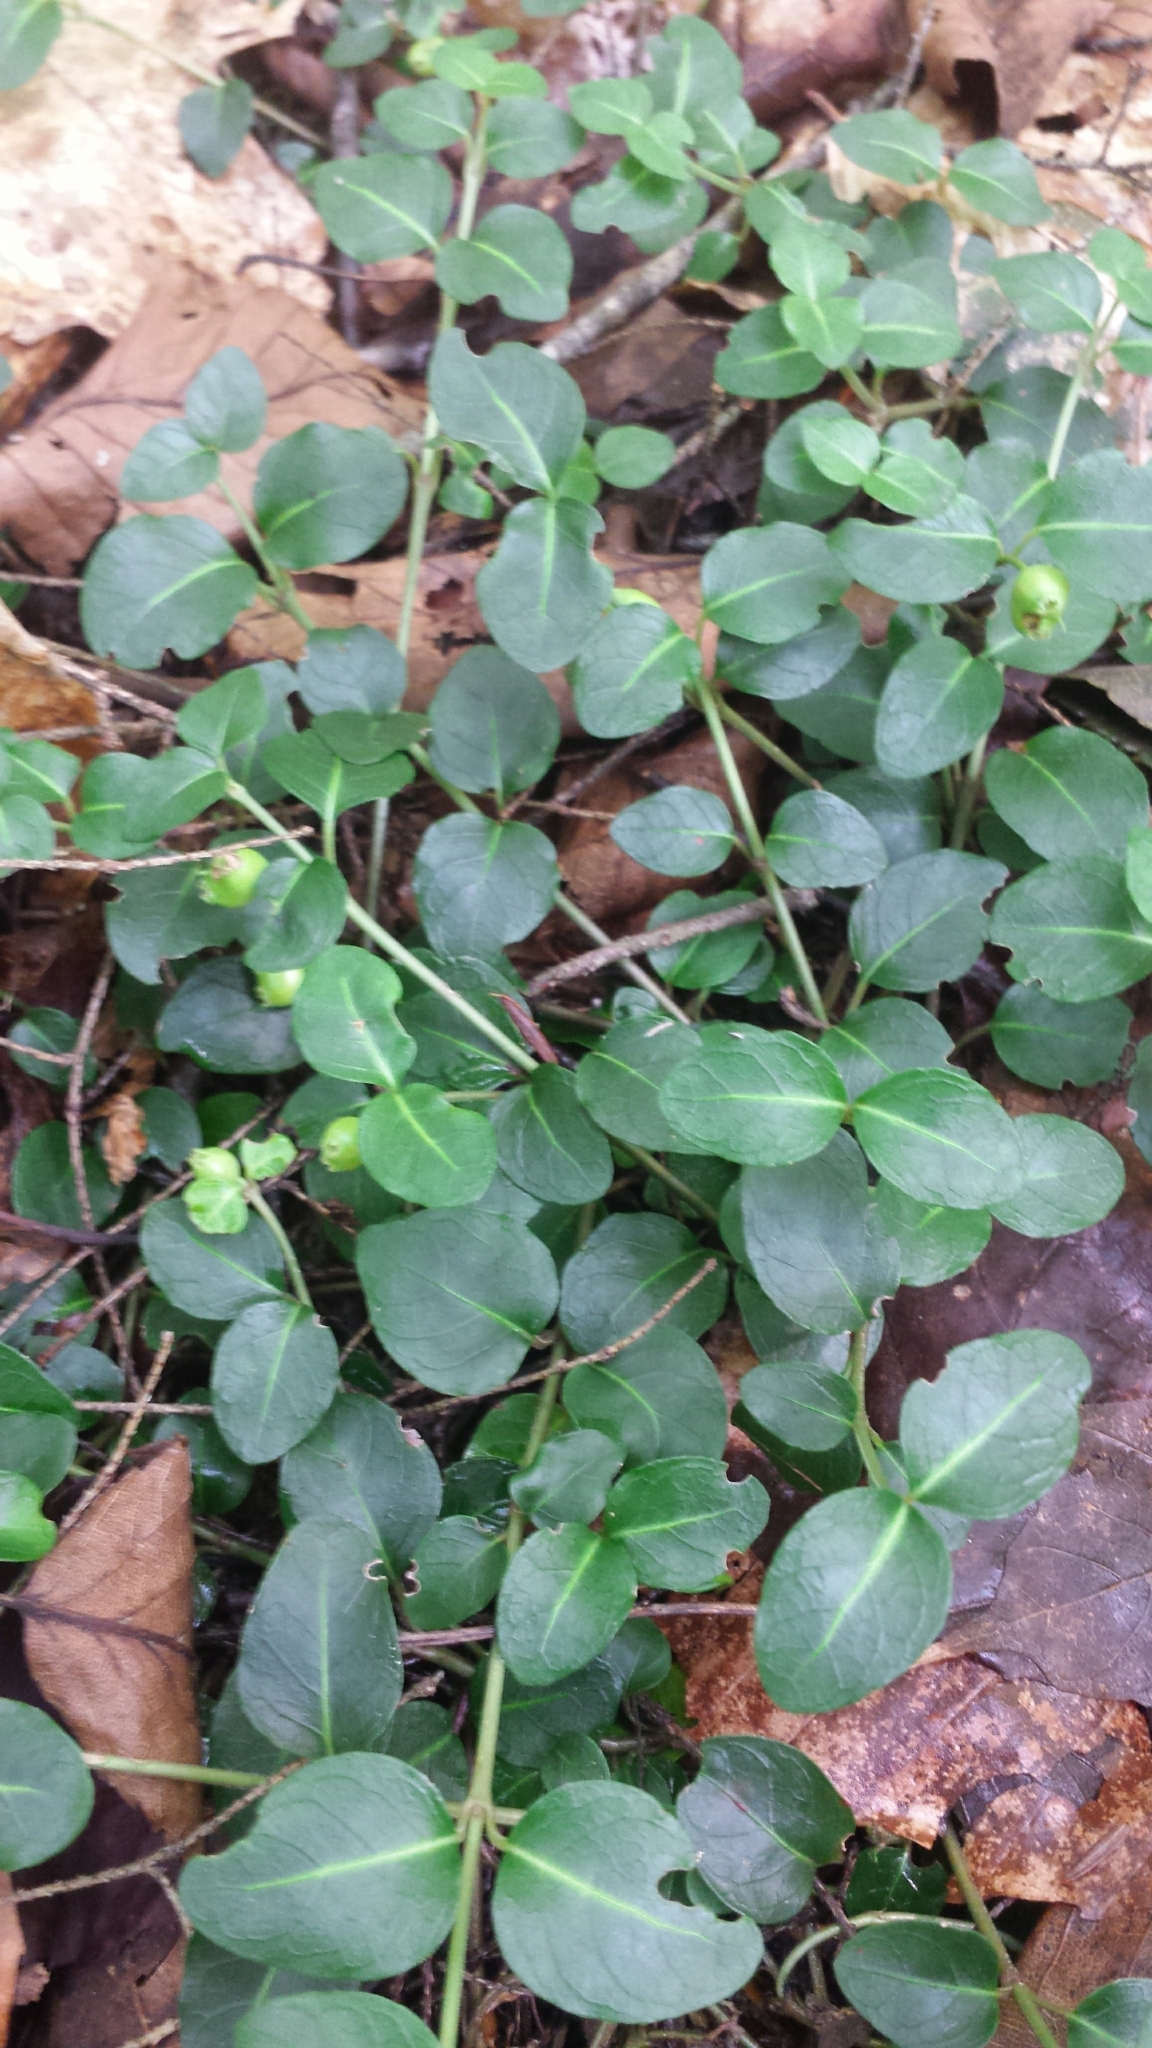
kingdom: Plantae
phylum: Tracheophyta
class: Magnoliopsida
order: Gentianales
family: Rubiaceae
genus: Mitchella
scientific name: Mitchella repens
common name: Partridge-berry
